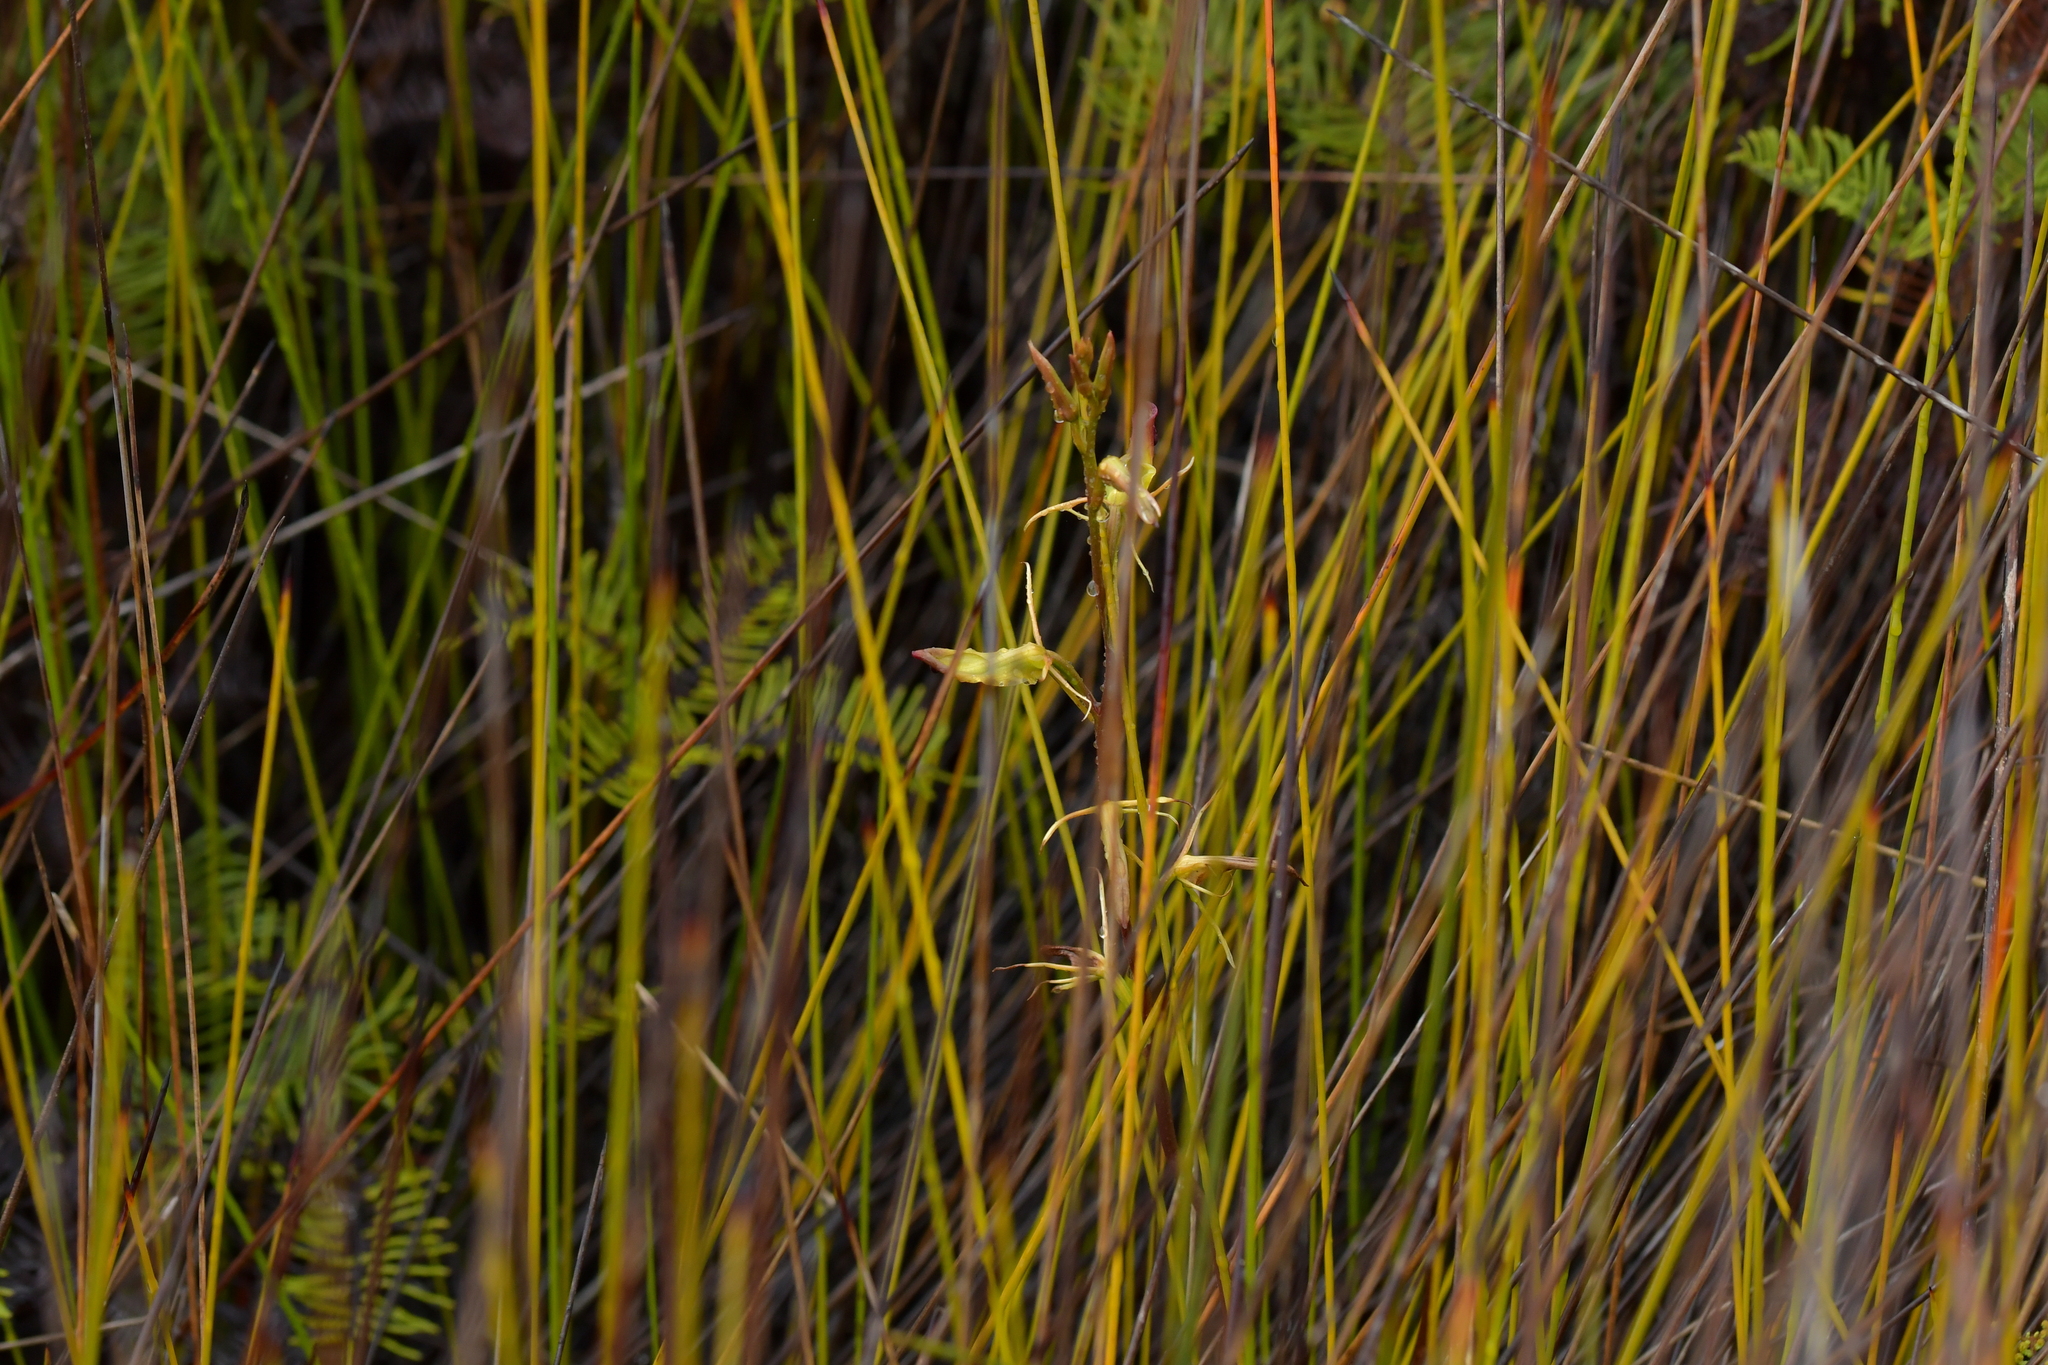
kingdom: Plantae
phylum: Tracheophyta
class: Liliopsida
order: Asparagales
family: Orchidaceae
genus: Cryptostylis
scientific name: Cryptostylis subulata
